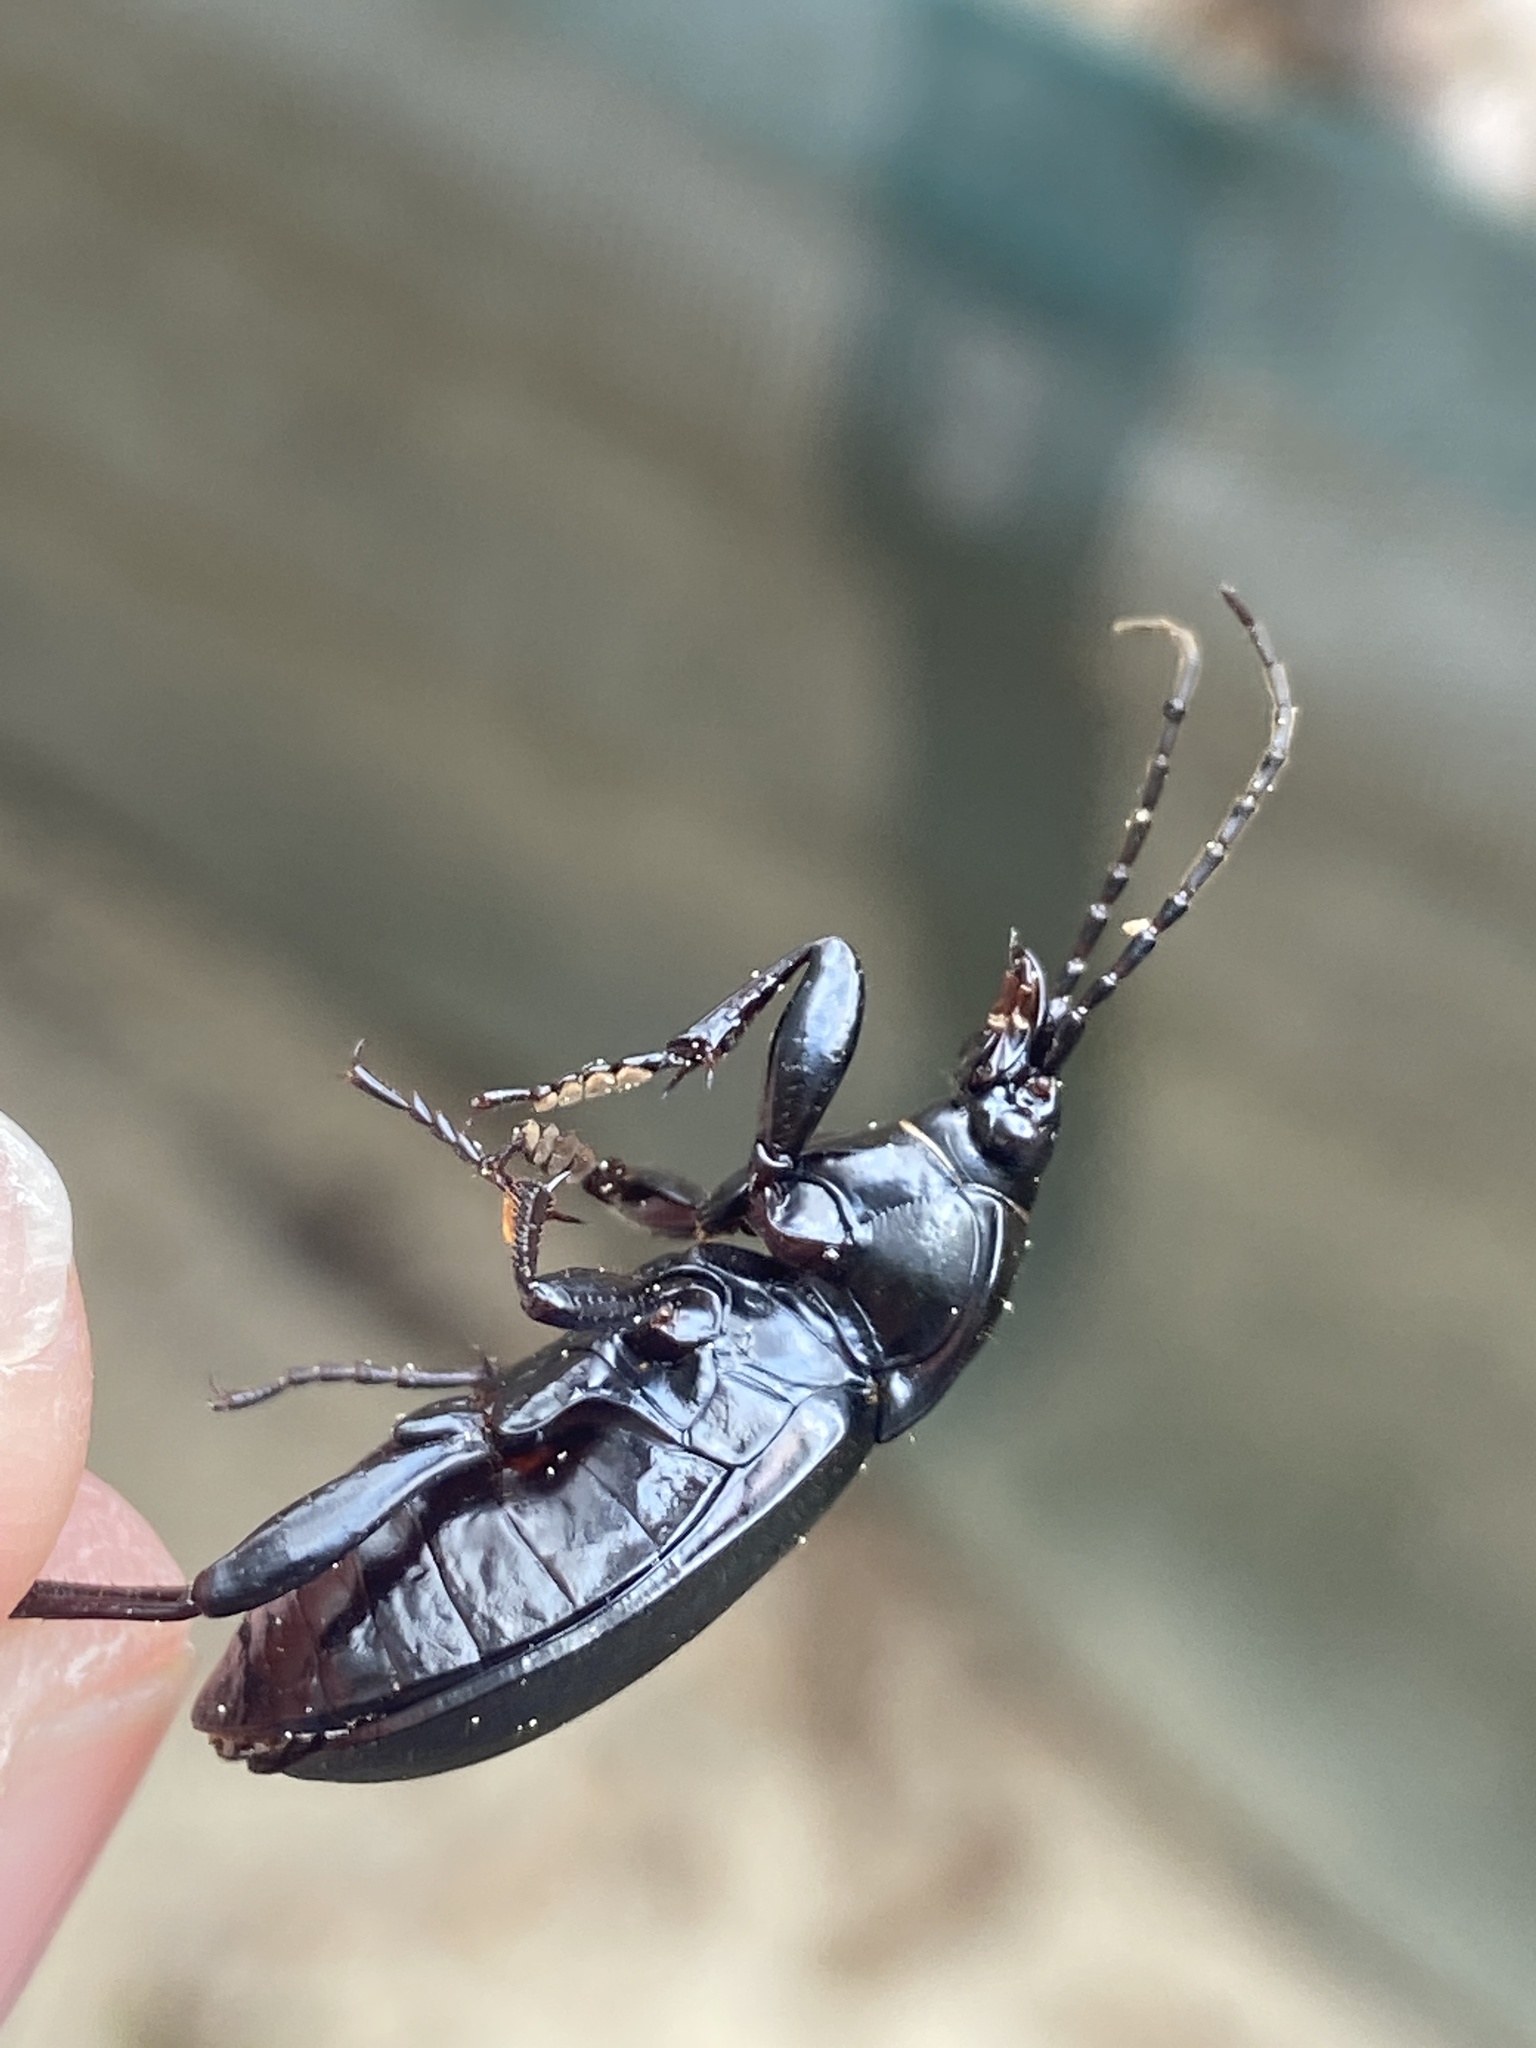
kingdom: Animalia
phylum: Arthropoda
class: Insecta
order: Coleoptera
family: Carabidae
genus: Carabus
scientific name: Carabus nemoralis
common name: European ground beetle
